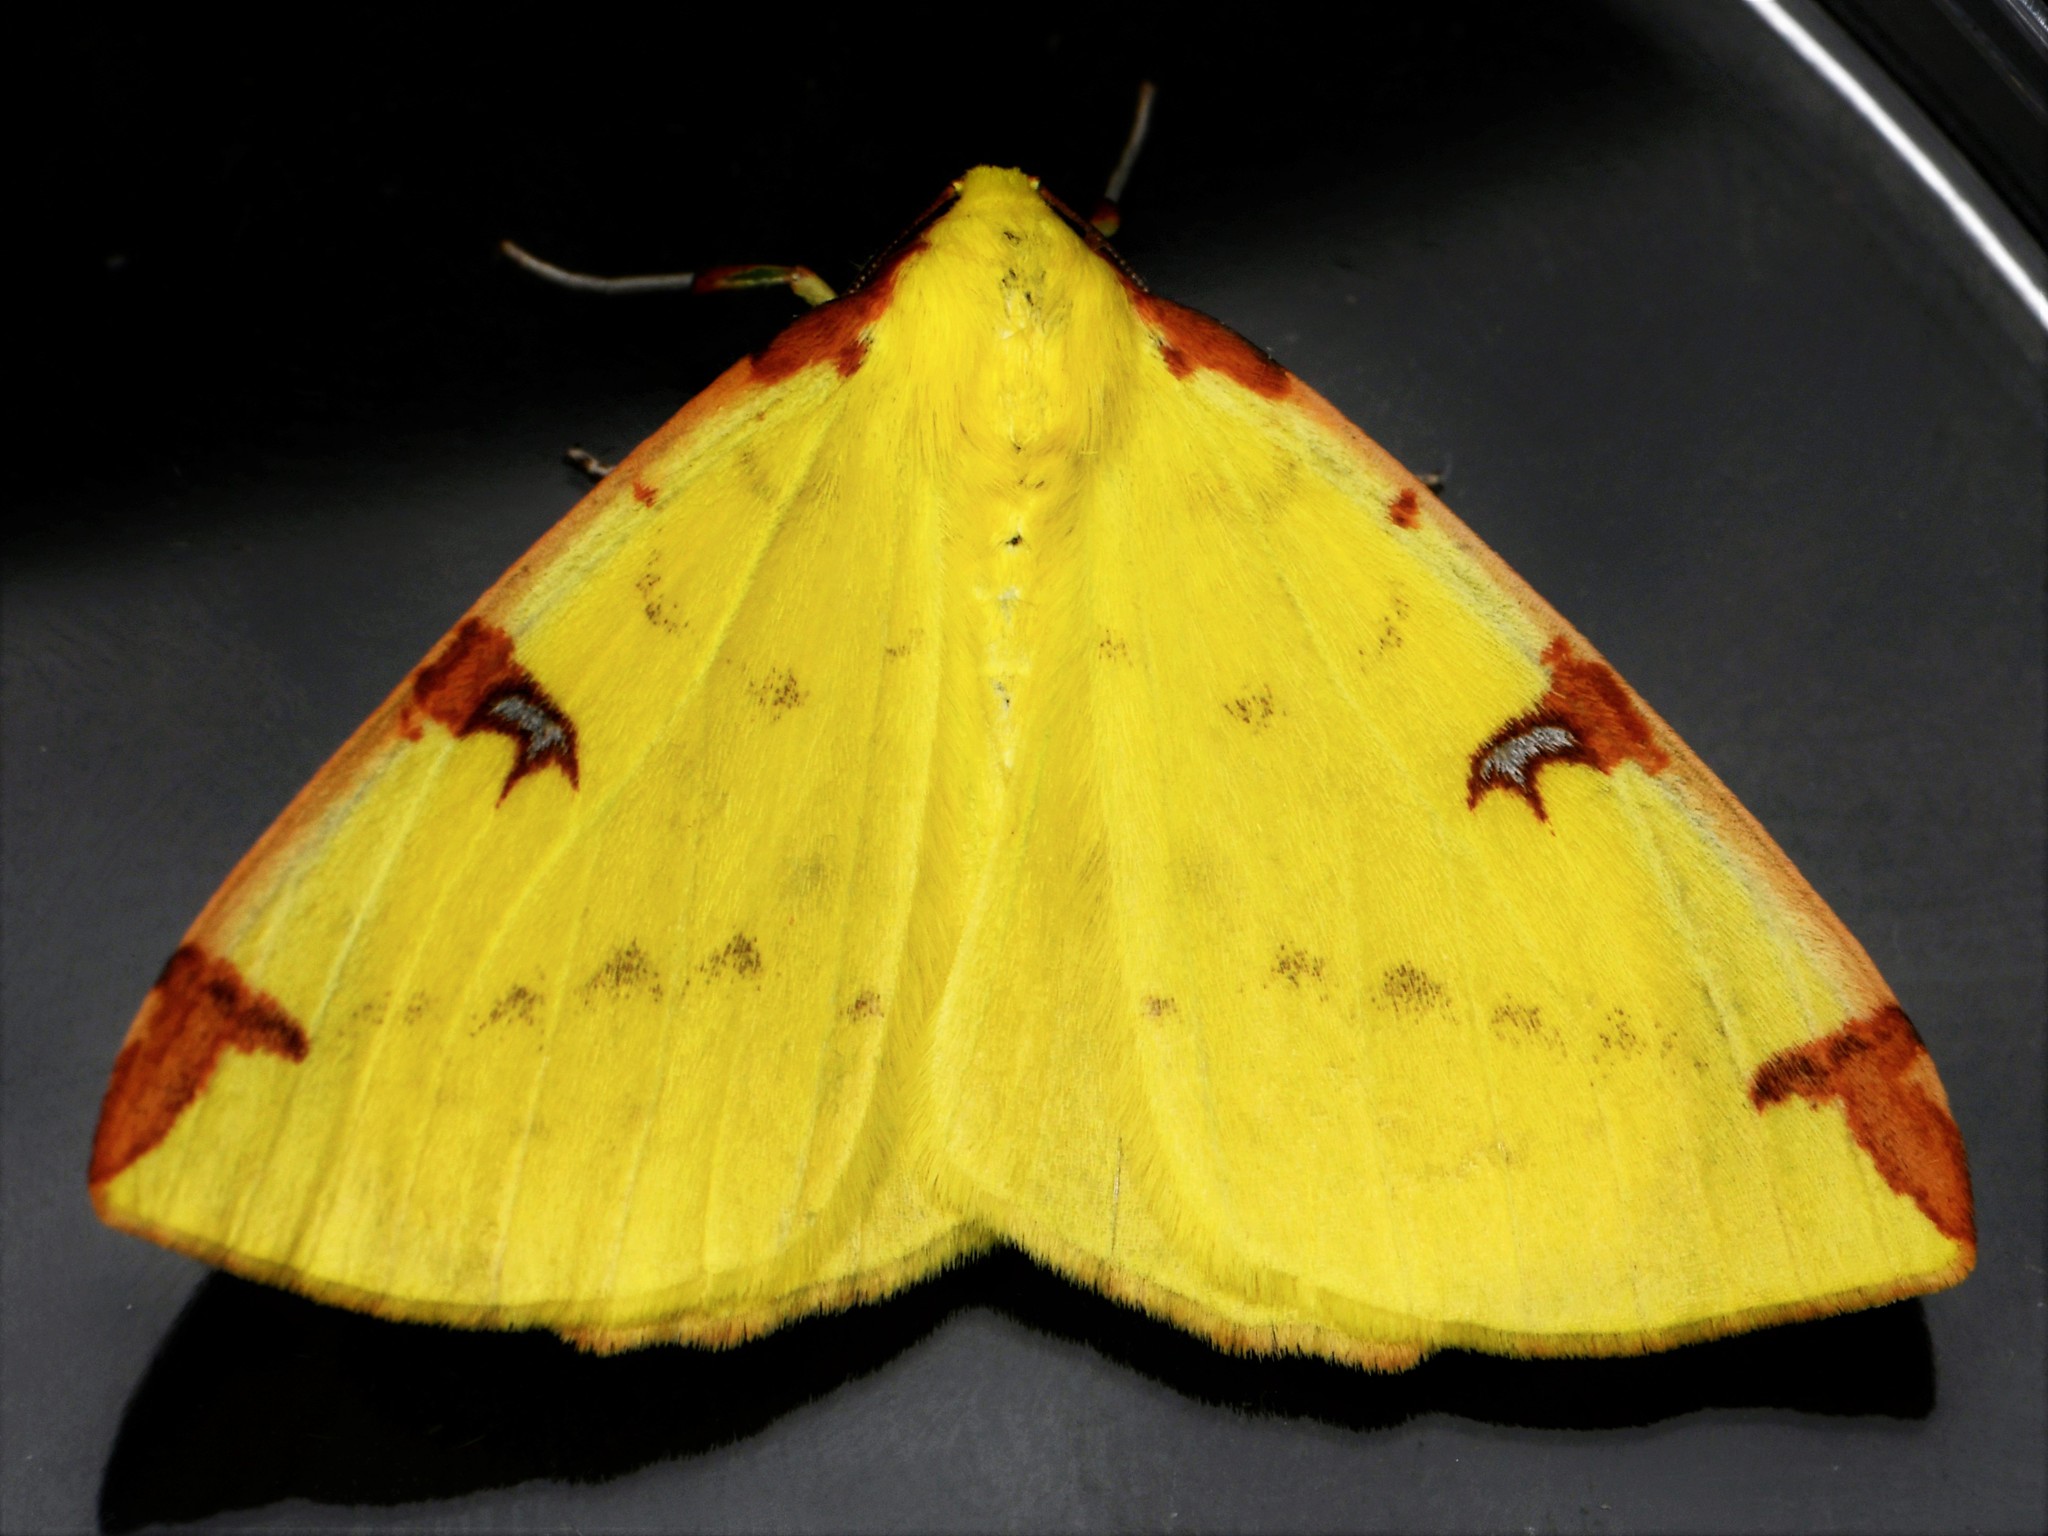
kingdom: Animalia
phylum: Arthropoda
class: Insecta
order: Lepidoptera
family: Geometridae
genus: Opisthograptis
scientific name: Opisthograptis luteolata
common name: Brimstone moth
